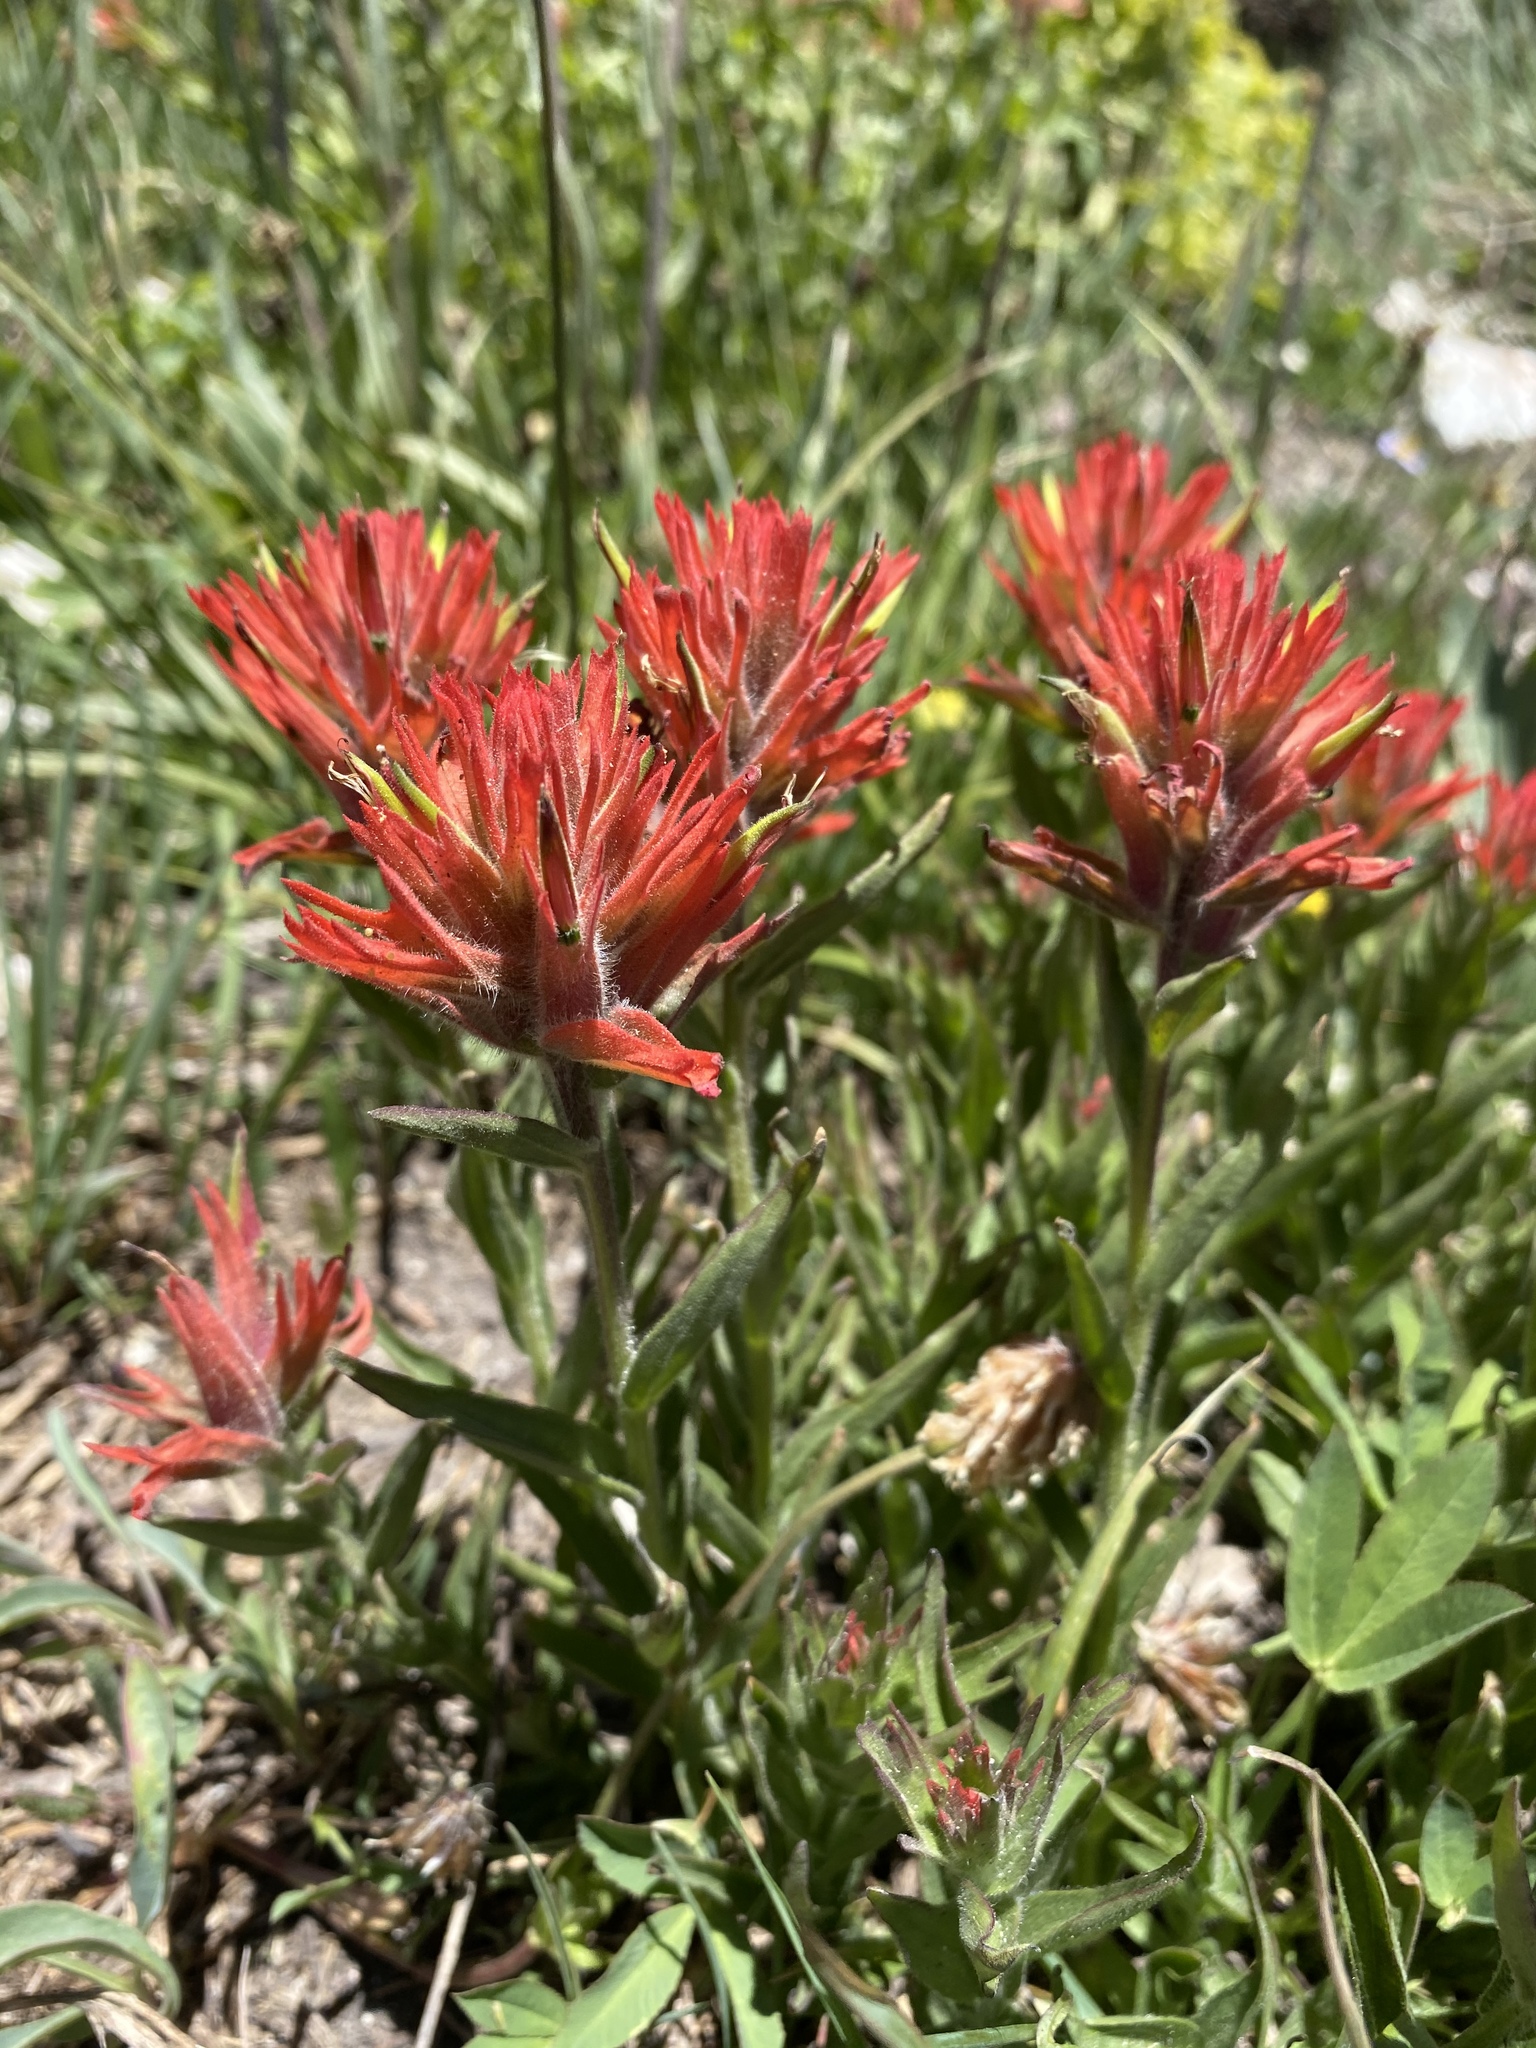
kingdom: Plantae
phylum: Tracheophyta
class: Magnoliopsida
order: Lamiales
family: Orobanchaceae
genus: Castilleja
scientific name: Castilleja miniata
